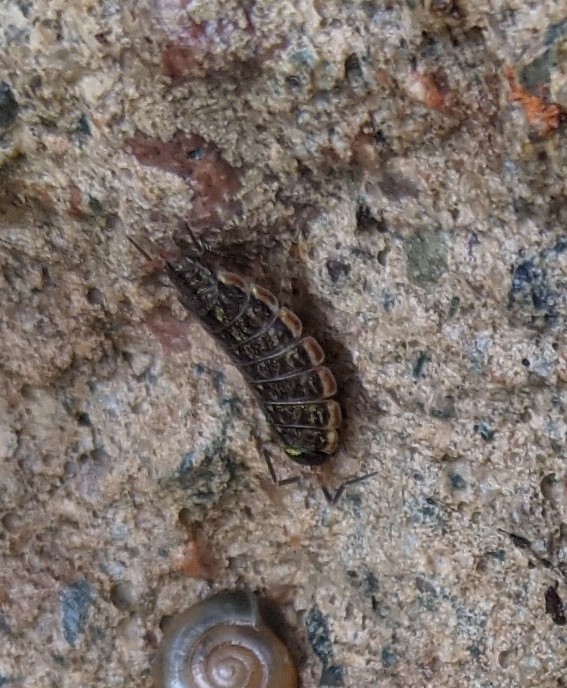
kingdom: Animalia
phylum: Arthropoda
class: Malacostraca
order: Isopoda
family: Philosciidae
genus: Philoscia
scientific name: Philoscia muscorum
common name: Common striped woodlouse
